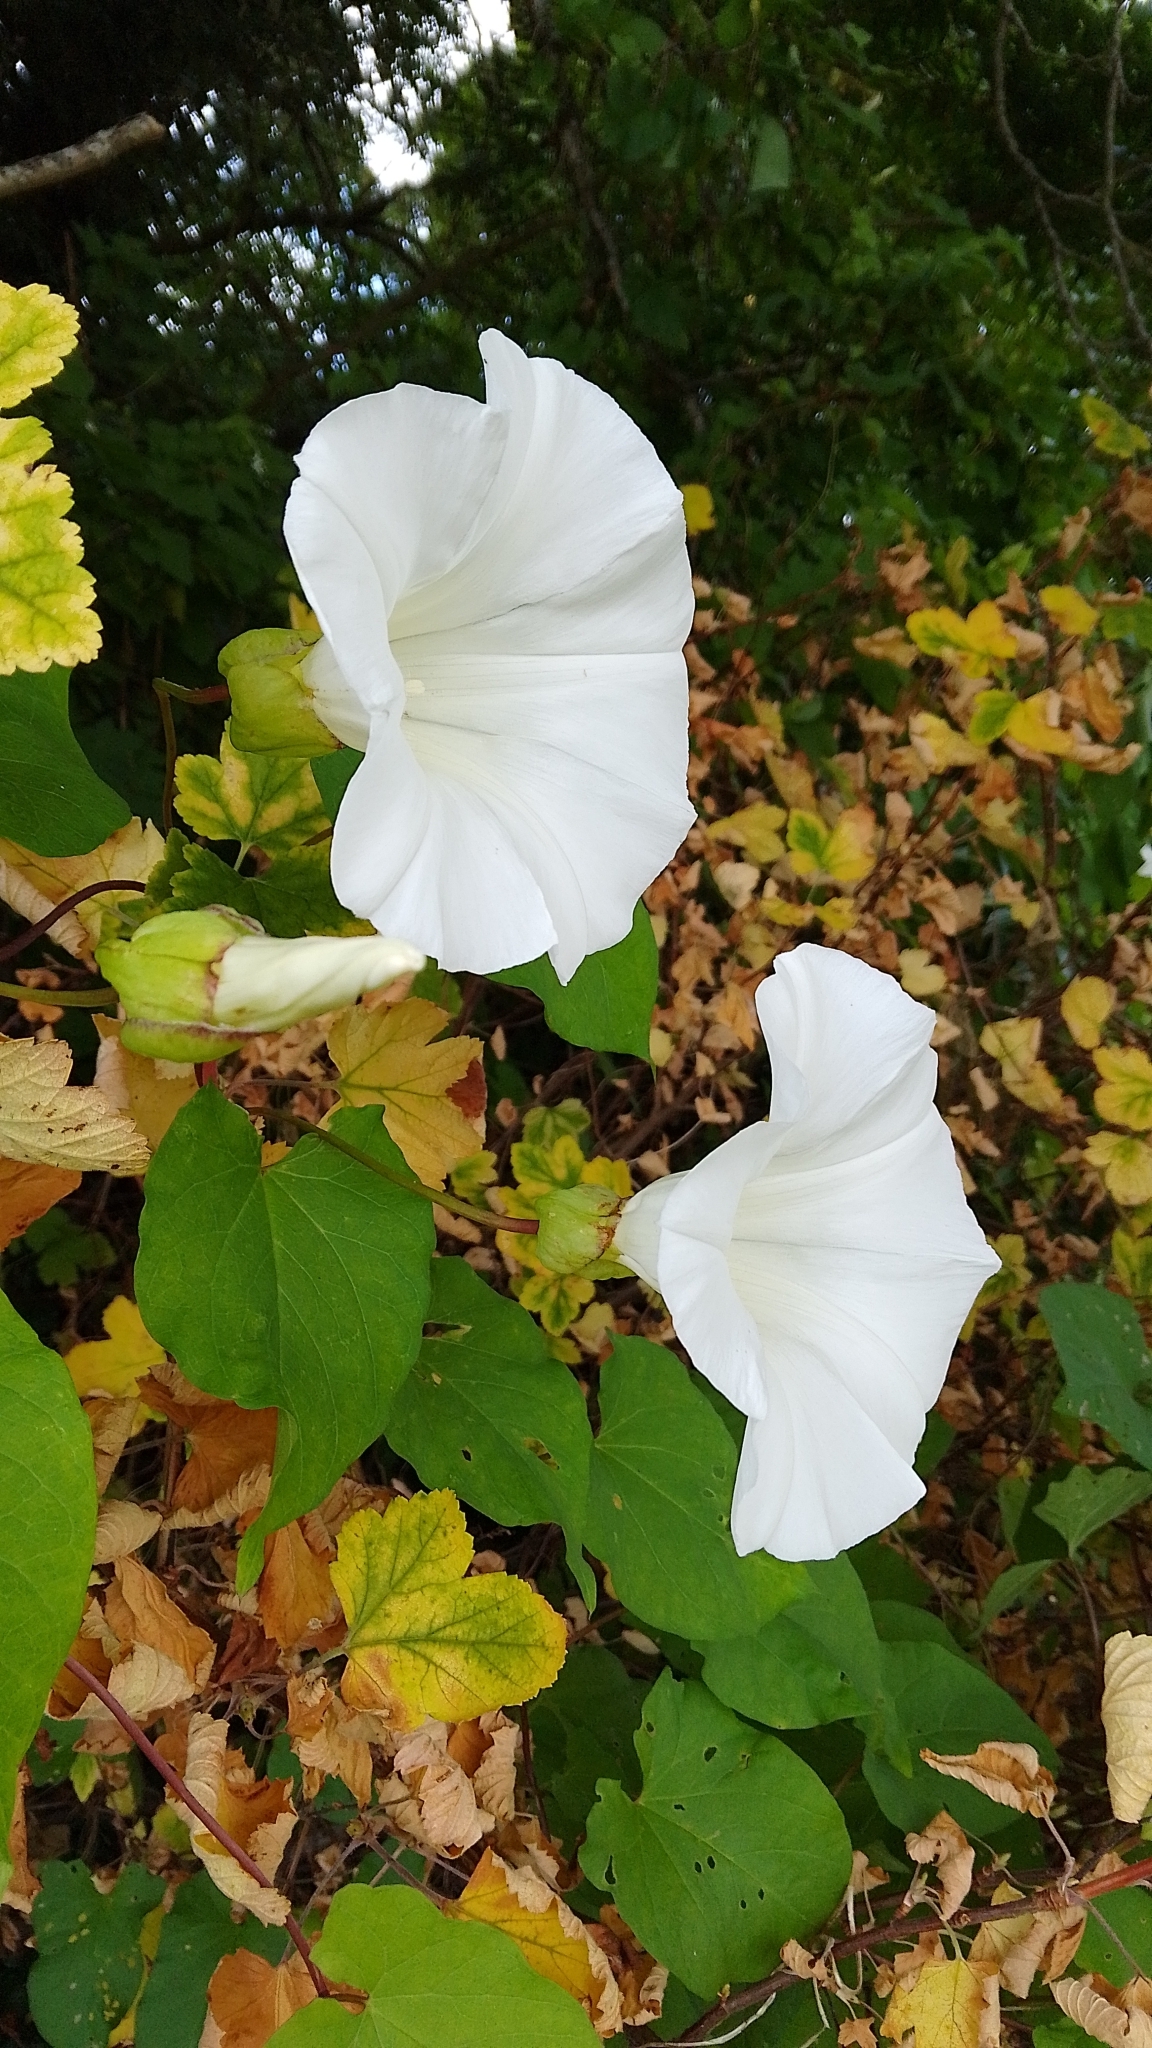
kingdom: Plantae
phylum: Tracheophyta
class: Magnoliopsida
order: Solanales
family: Convolvulaceae
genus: Calystegia
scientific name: Calystegia silvatica
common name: Large bindweed
